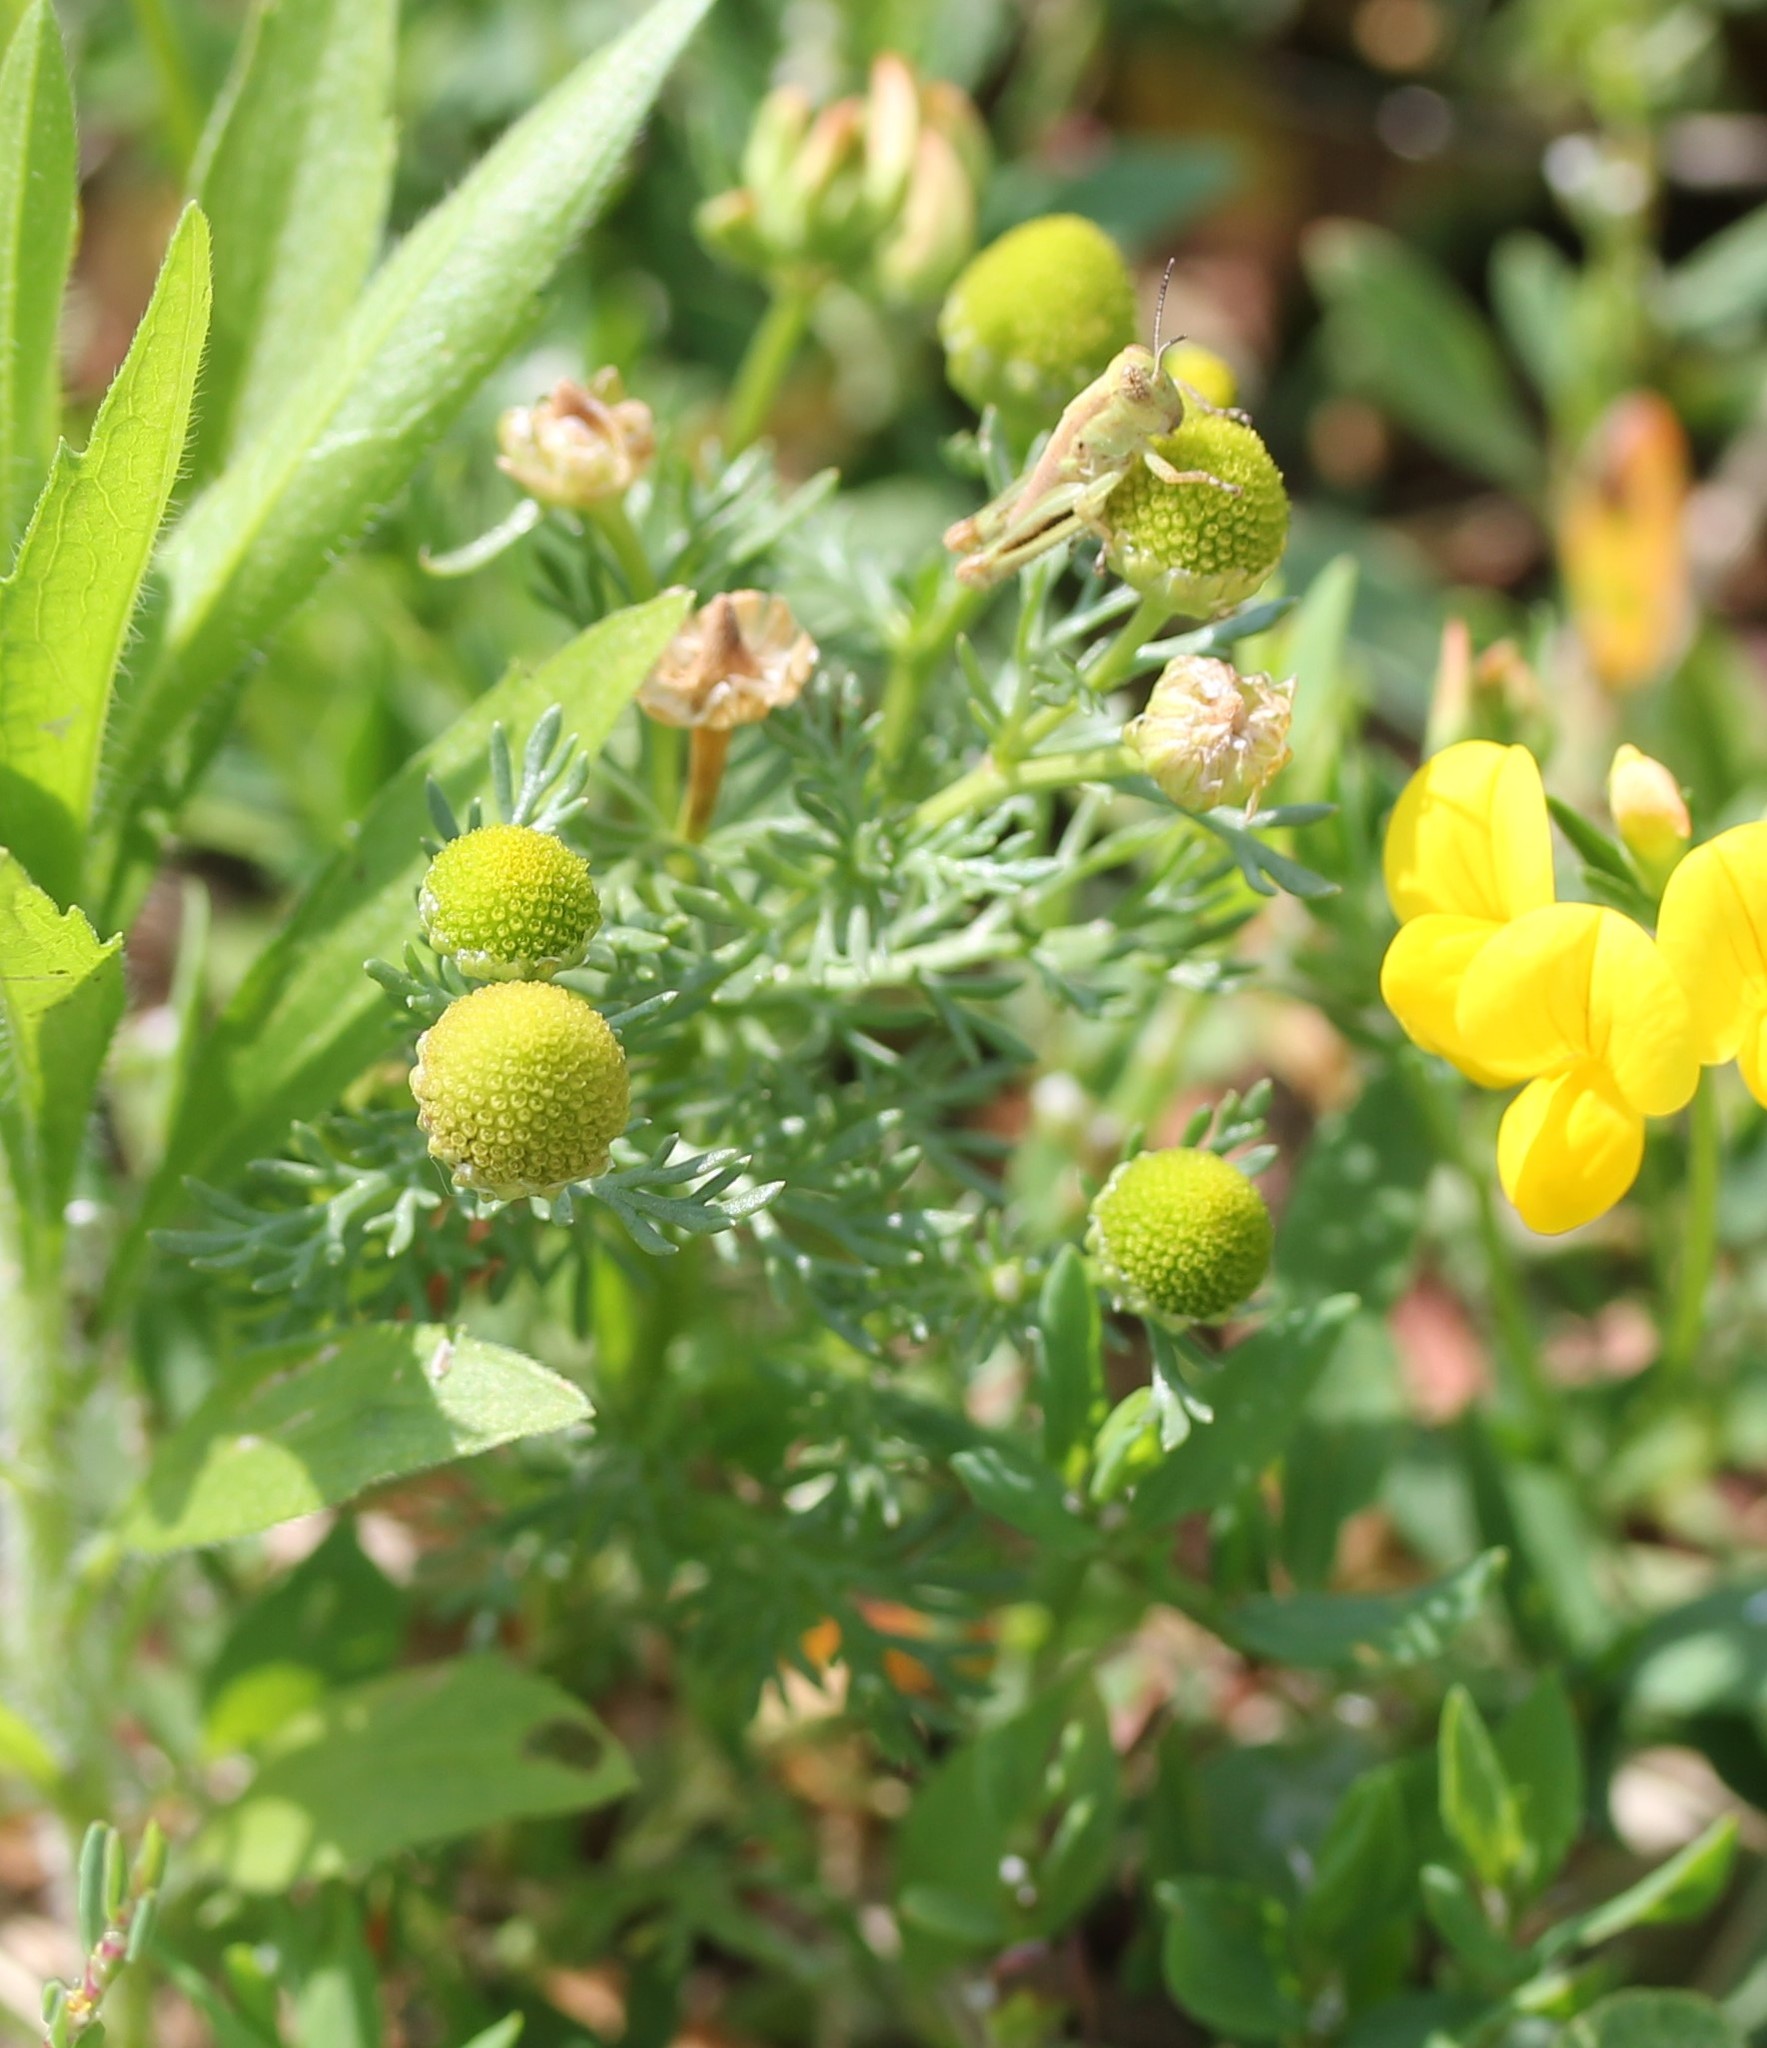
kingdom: Plantae
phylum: Tracheophyta
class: Magnoliopsida
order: Asterales
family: Asteraceae
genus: Matricaria
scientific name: Matricaria discoidea
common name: Disc mayweed
